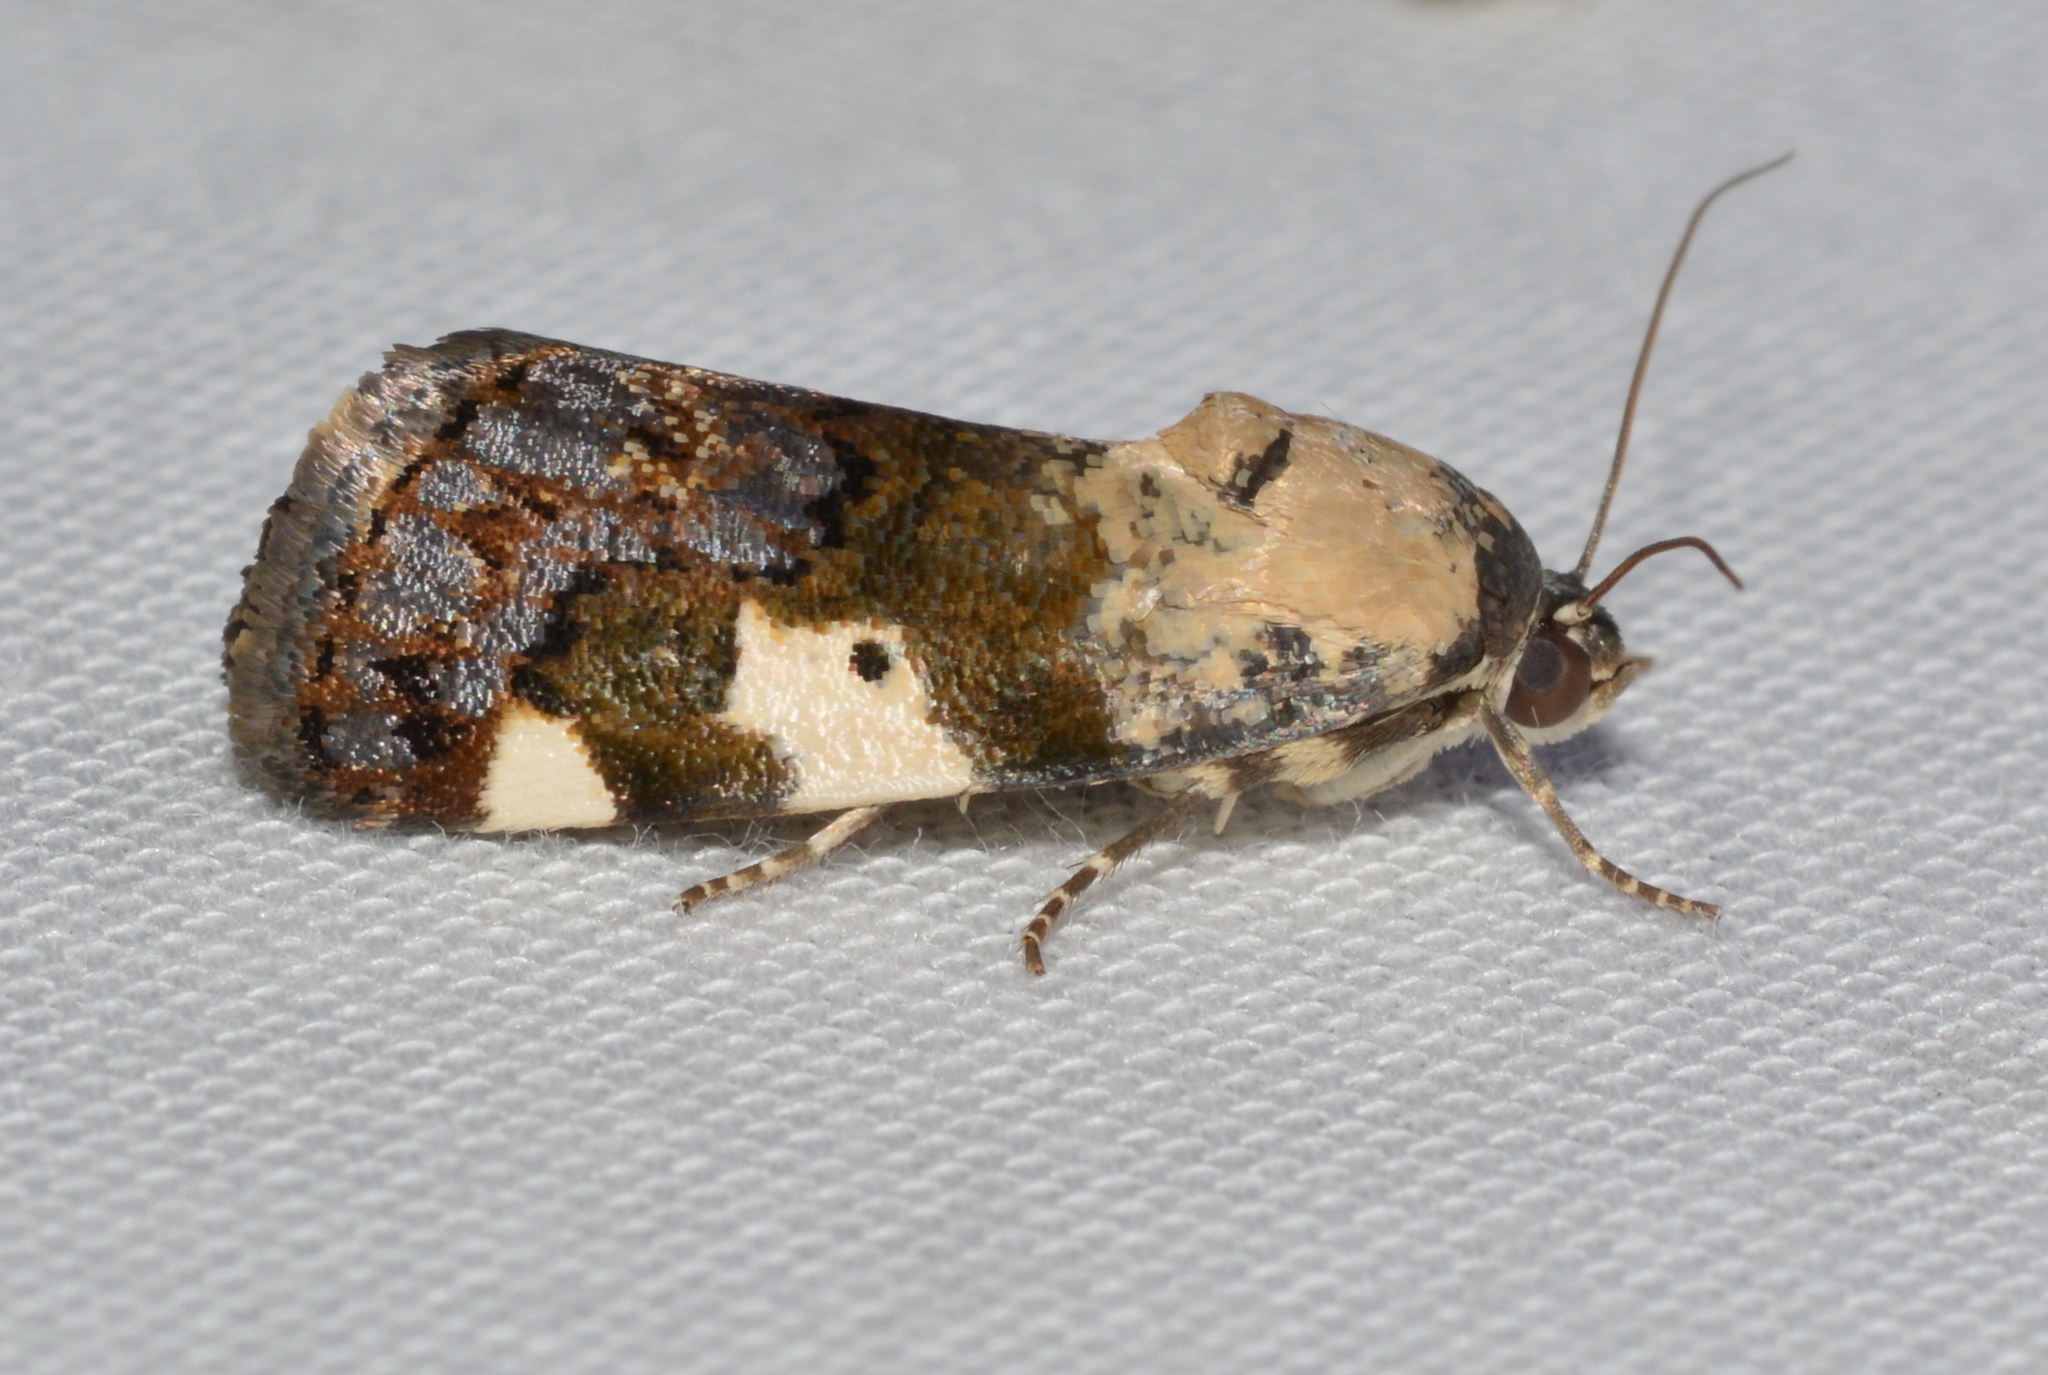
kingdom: Animalia
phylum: Arthropoda
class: Insecta
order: Lepidoptera
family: Noctuidae
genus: Acontia
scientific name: Acontia aprica
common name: Nun
